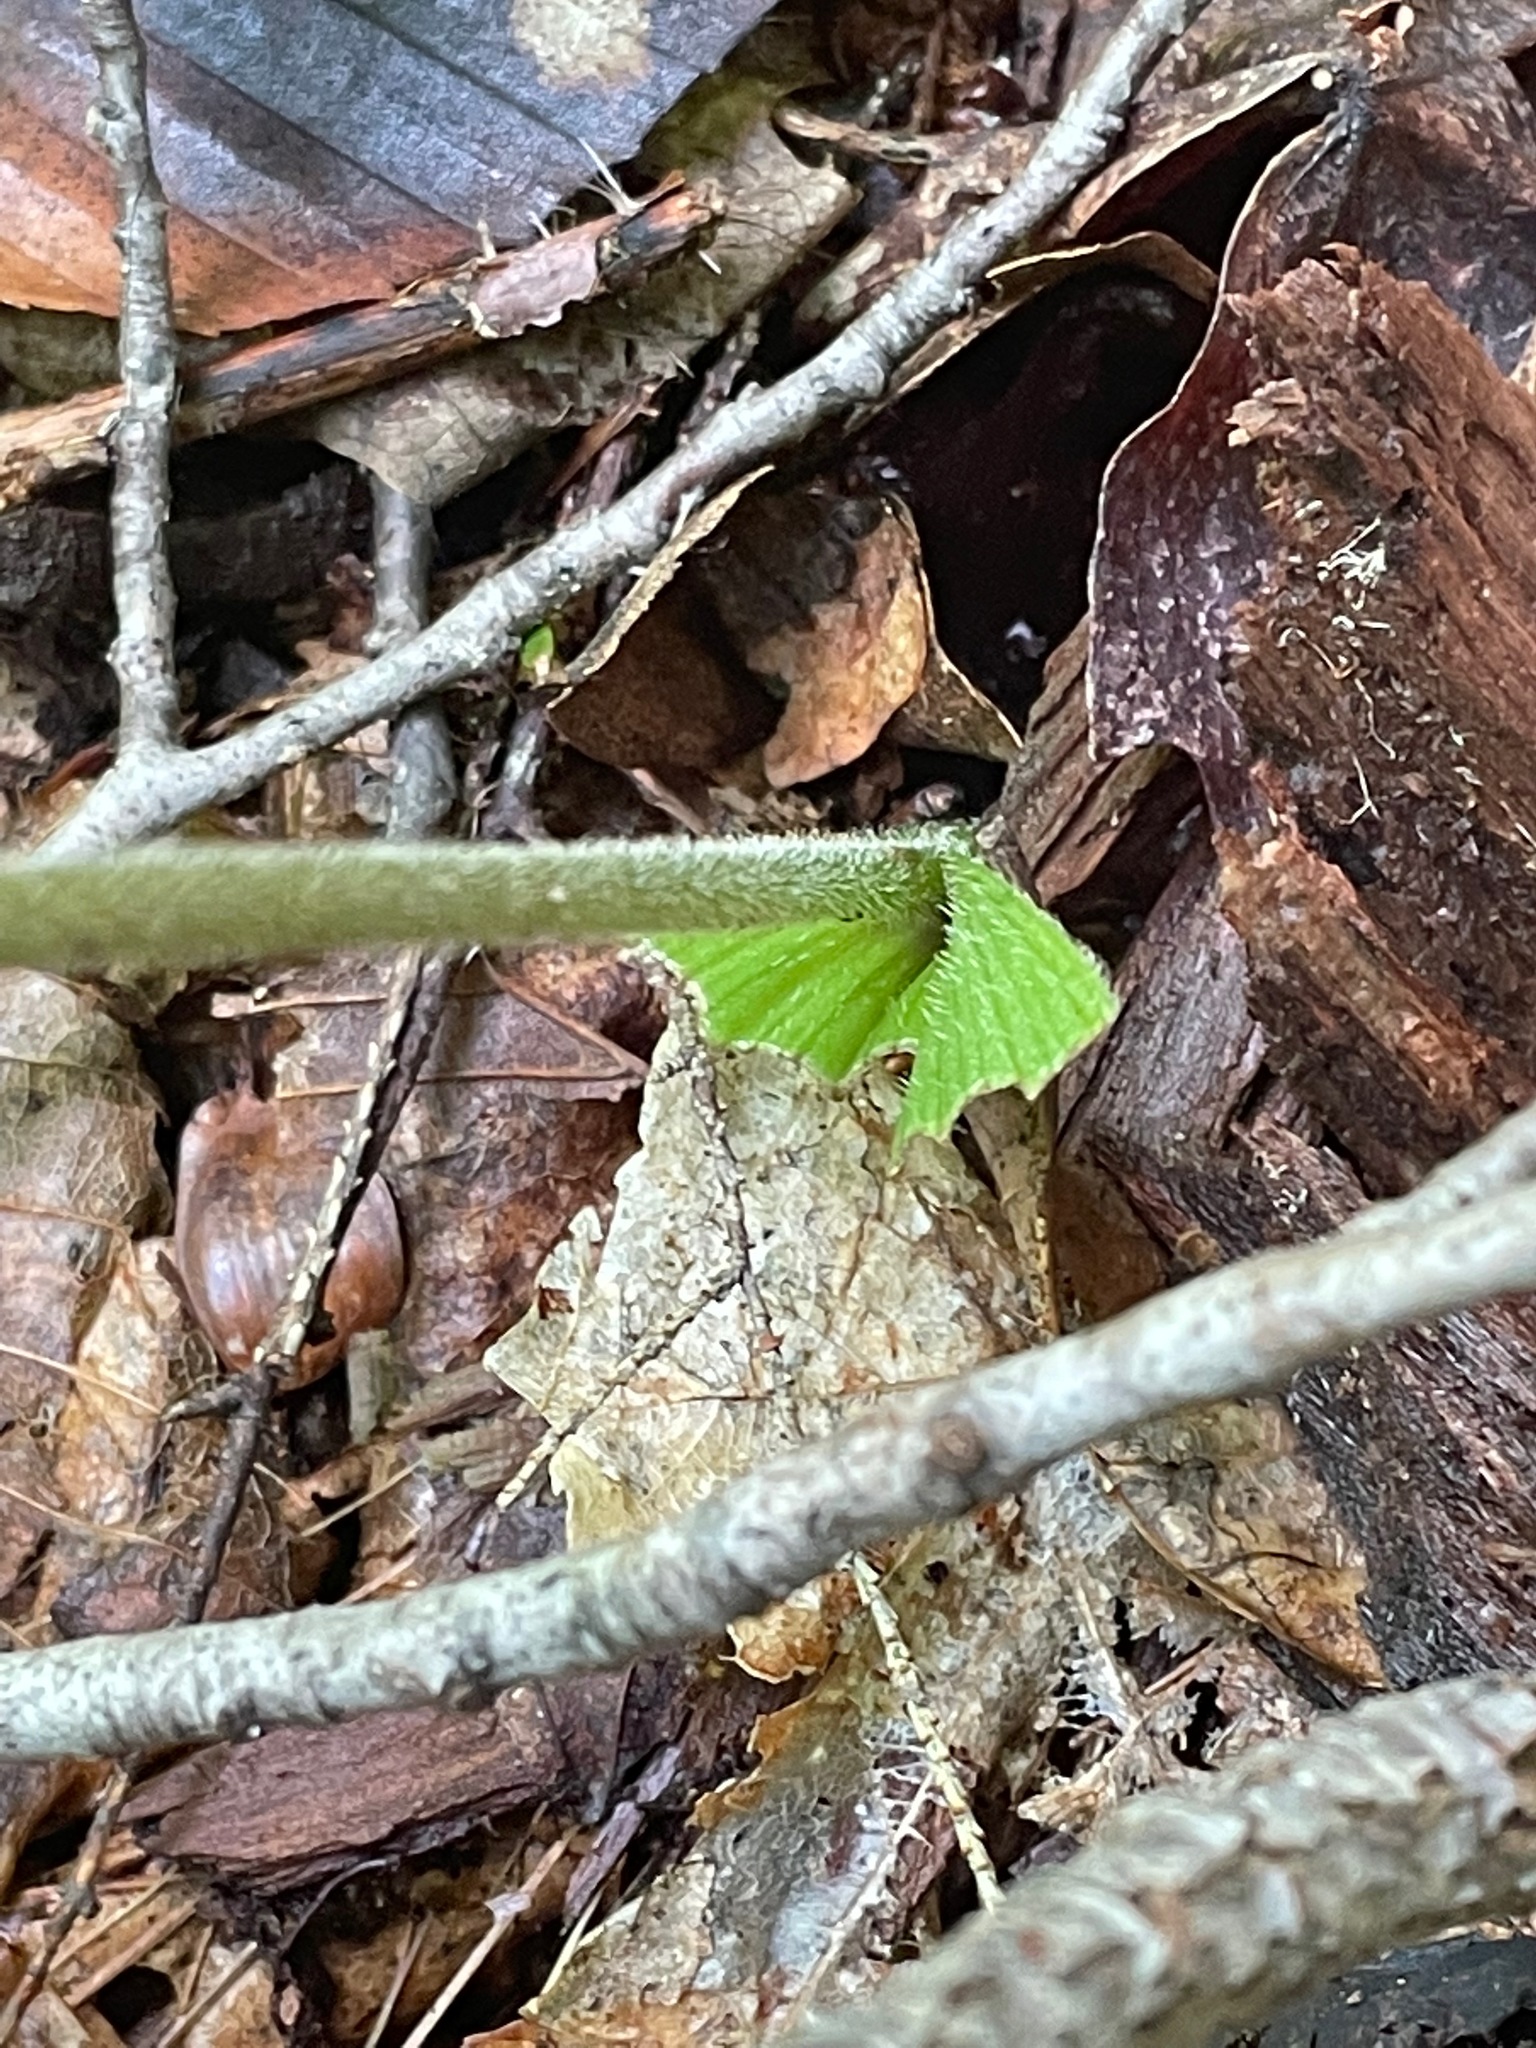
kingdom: Plantae
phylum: Tracheophyta
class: Liliopsida
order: Asparagales
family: Orchidaceae
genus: Cypripedium
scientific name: Cypripedium acaule
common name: Pink lady's-slipper
